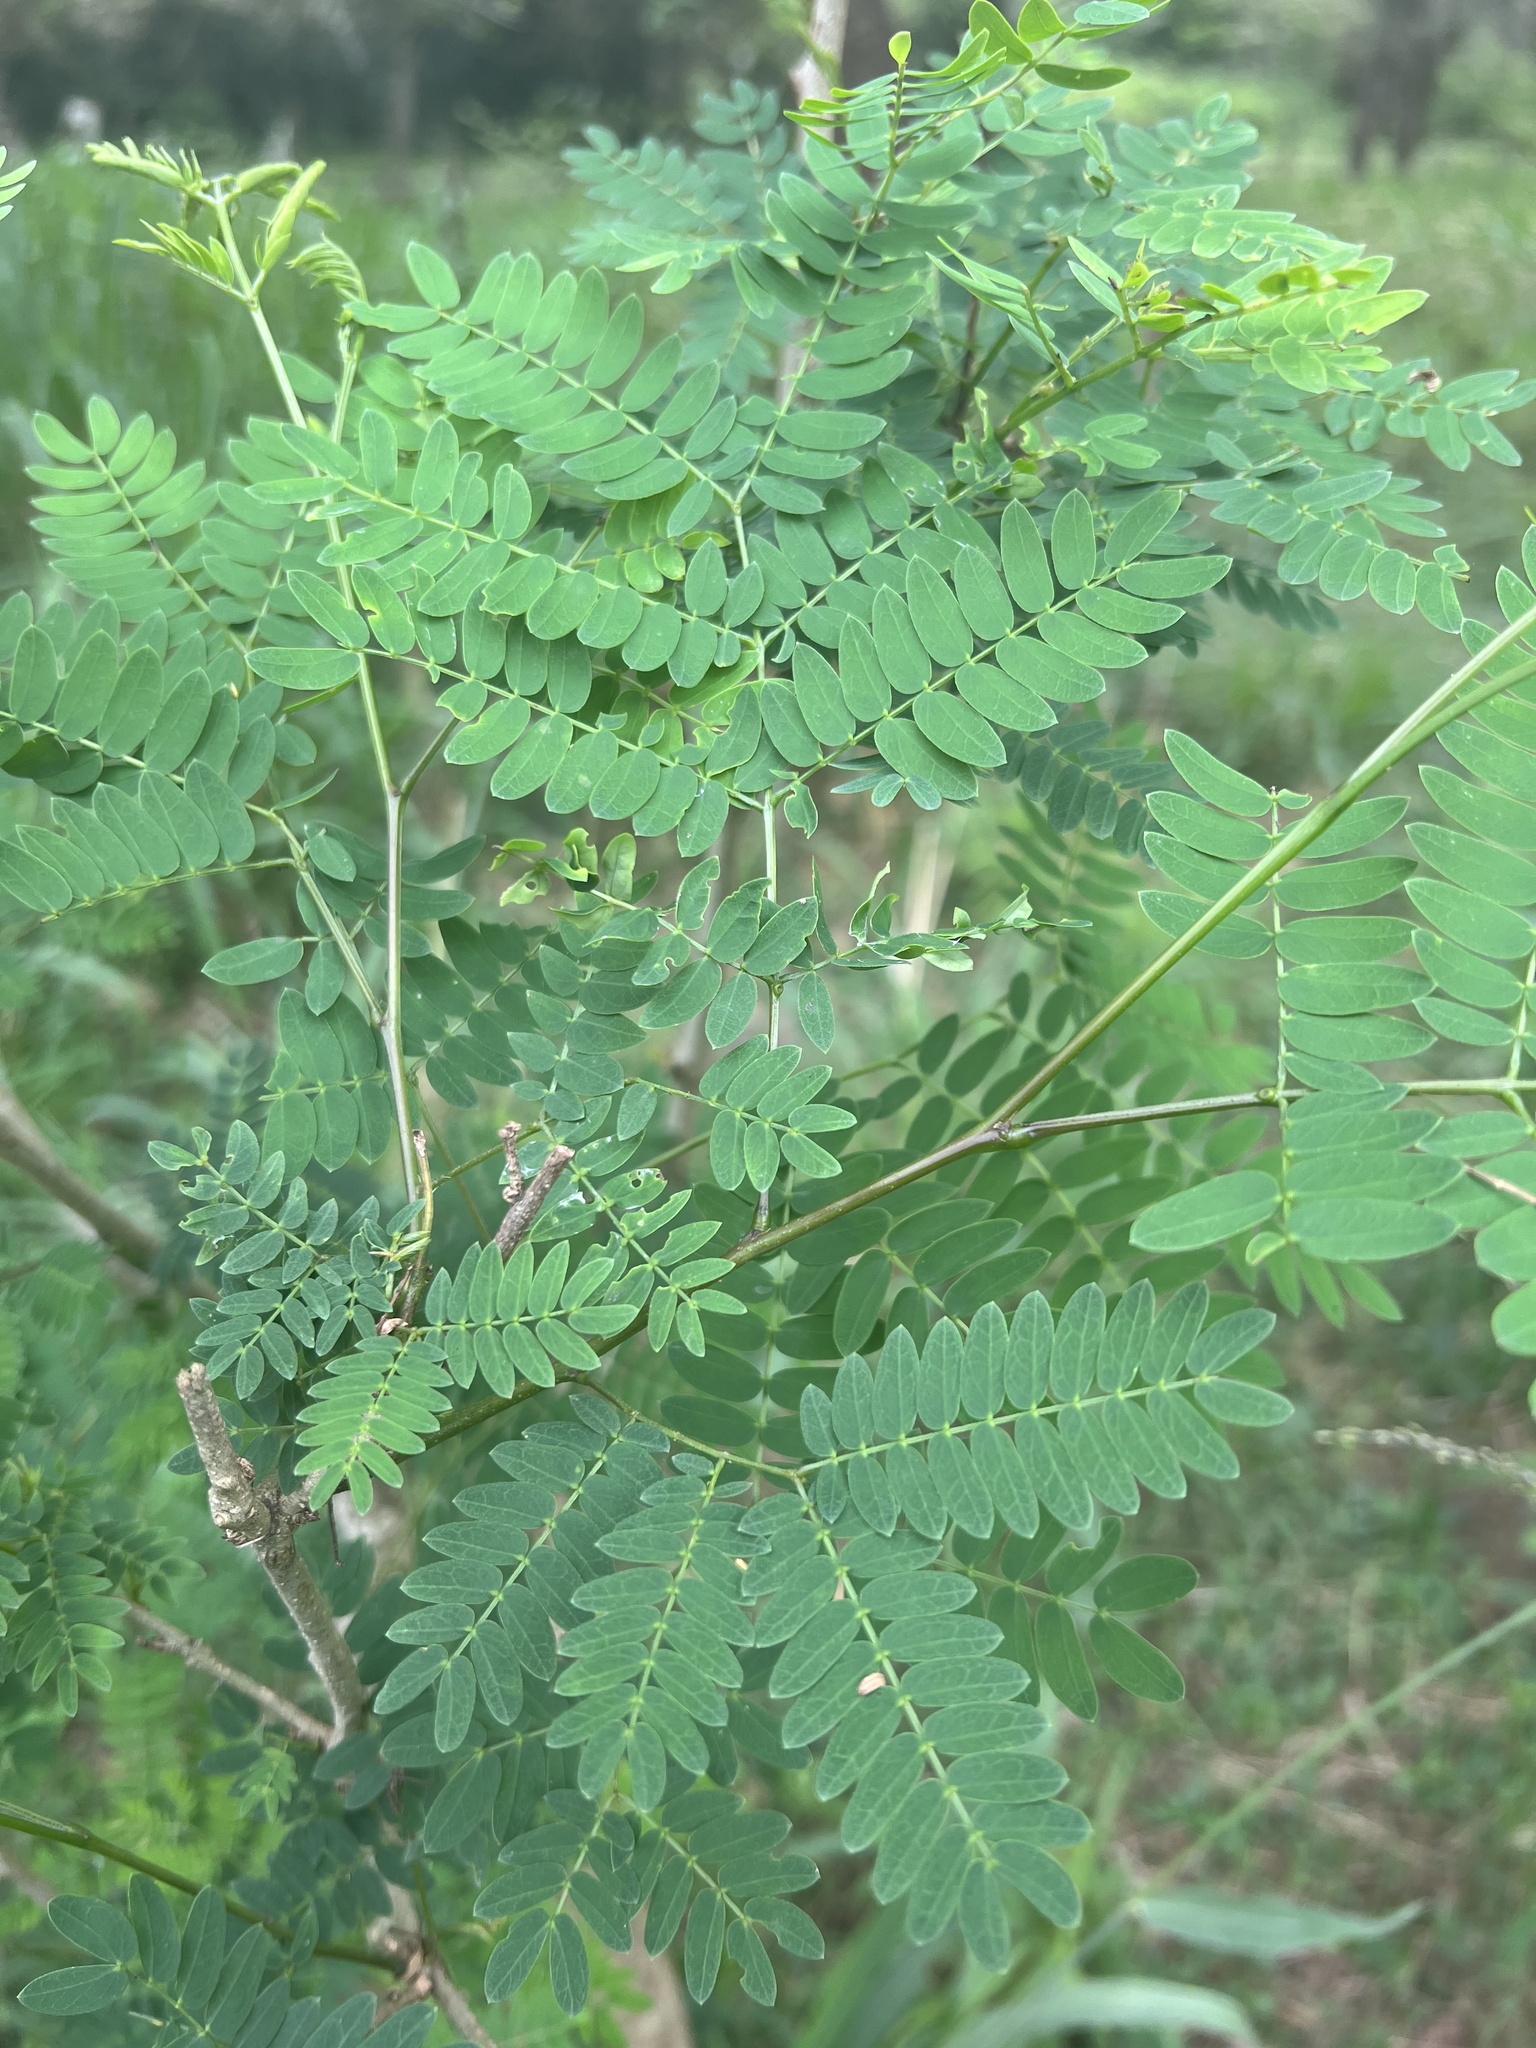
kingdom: Plantae
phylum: Tracheophyta
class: Magnoliopsida
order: Fabales
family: Fabaceae
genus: Leucaena
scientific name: Leucaena leucocephala
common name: White leadtree
